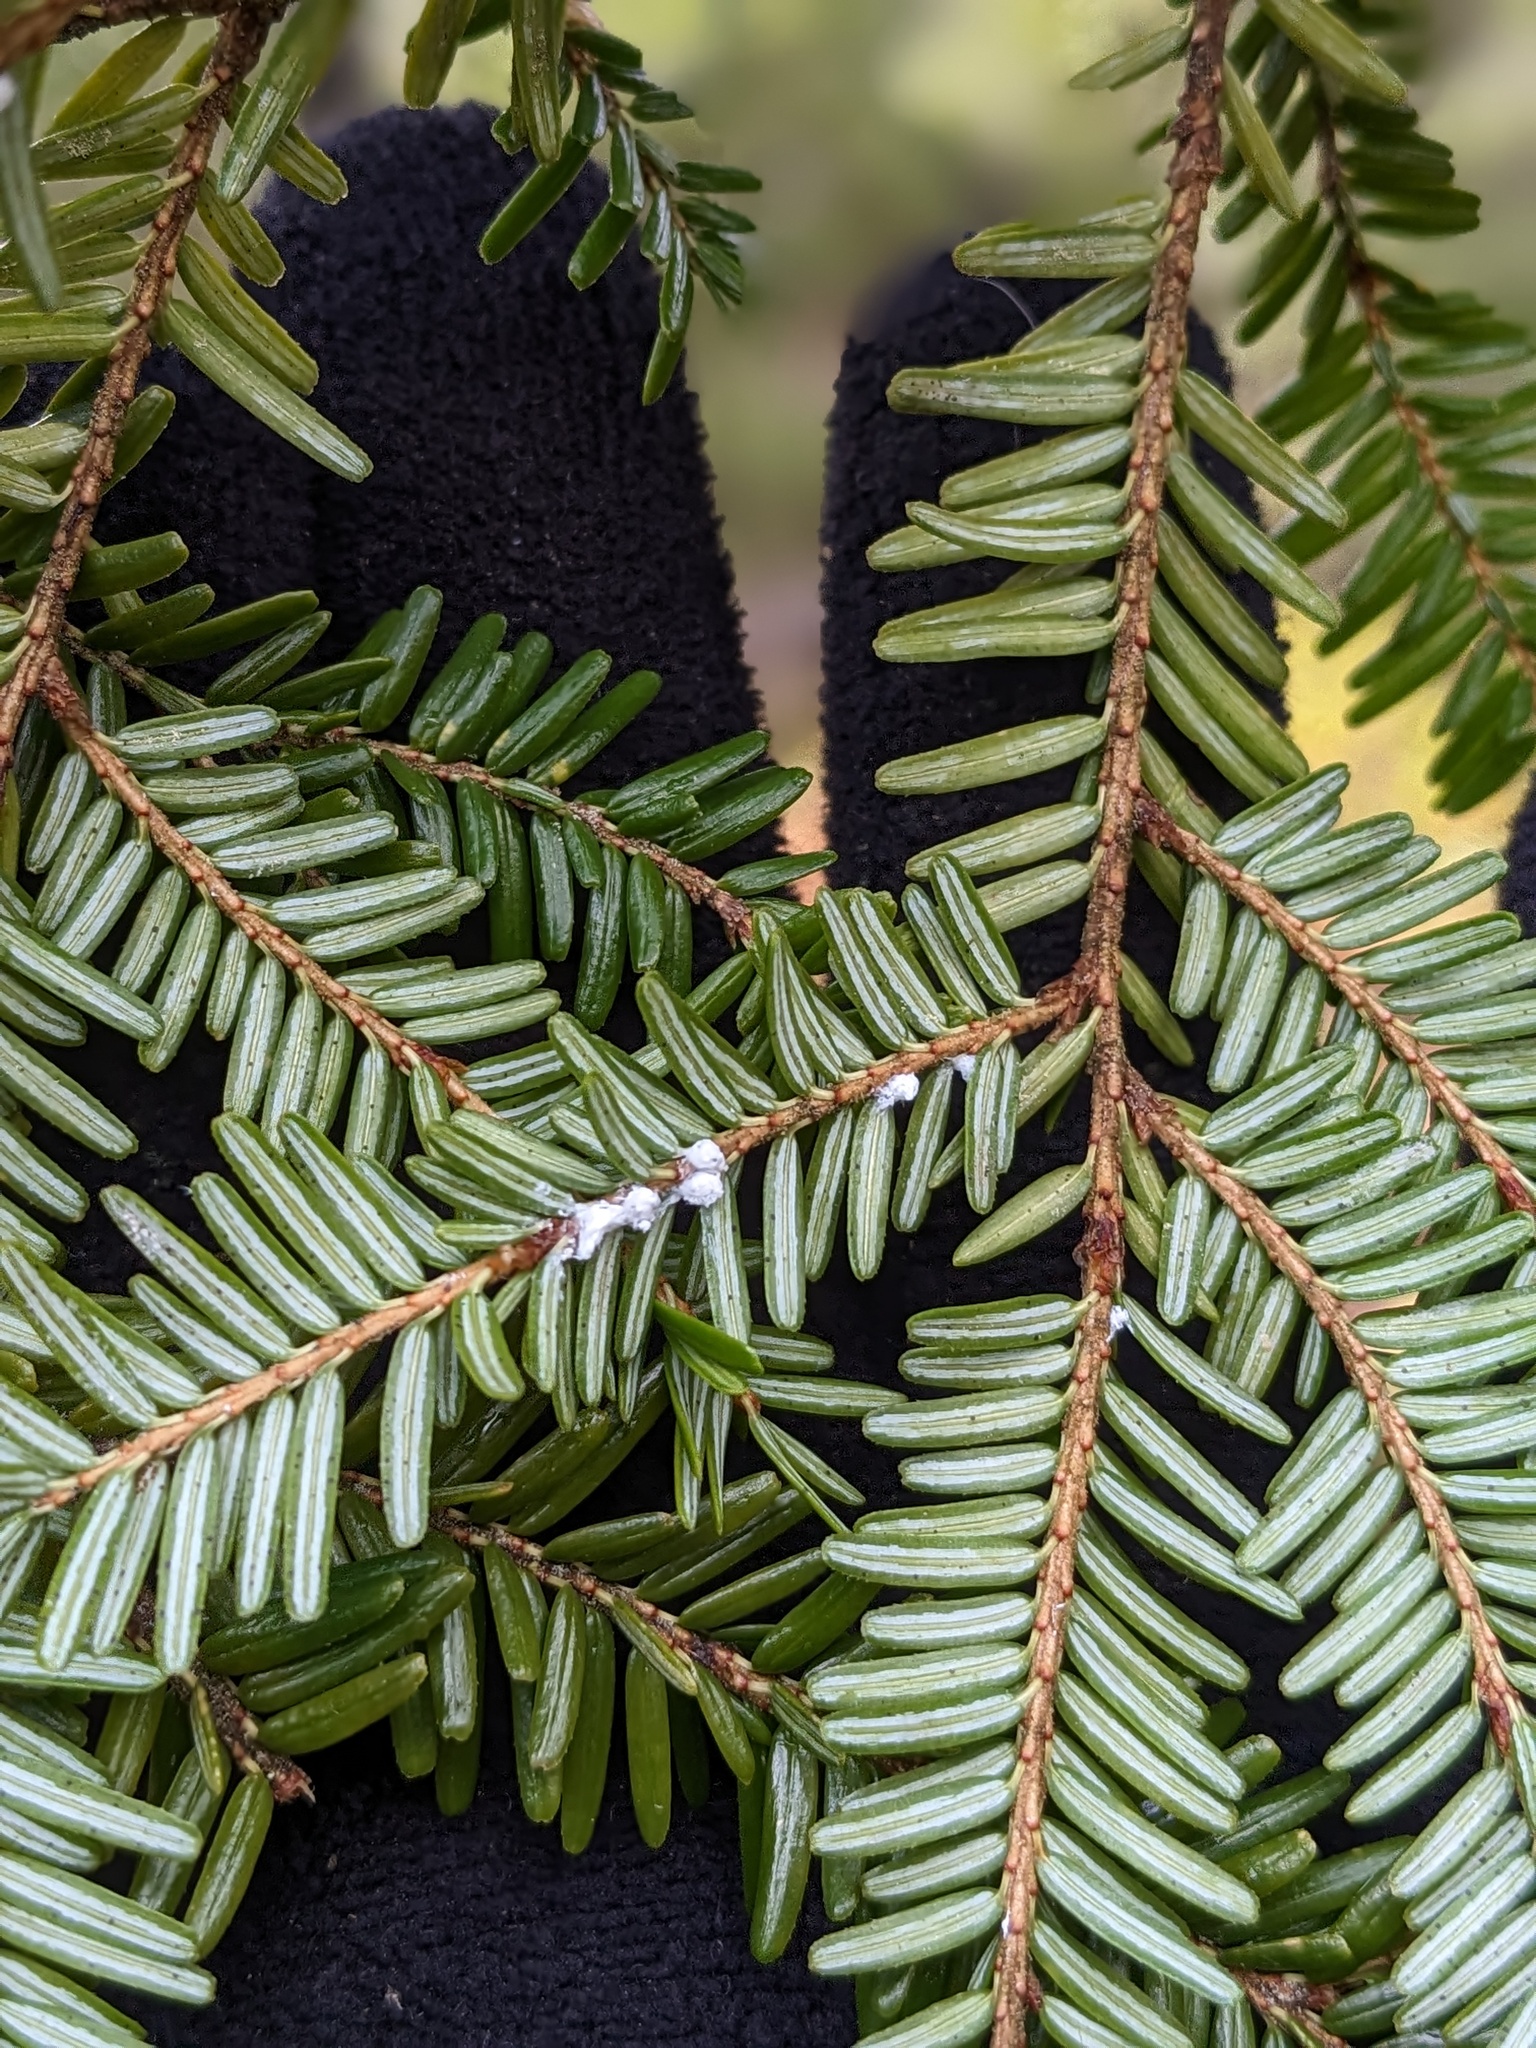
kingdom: Animalia
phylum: Arthropoda
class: Insecta
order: Hemiptera
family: Adelgidae
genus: Adelges
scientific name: Adelges tsugae
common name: Hemlock woolly adelgid
